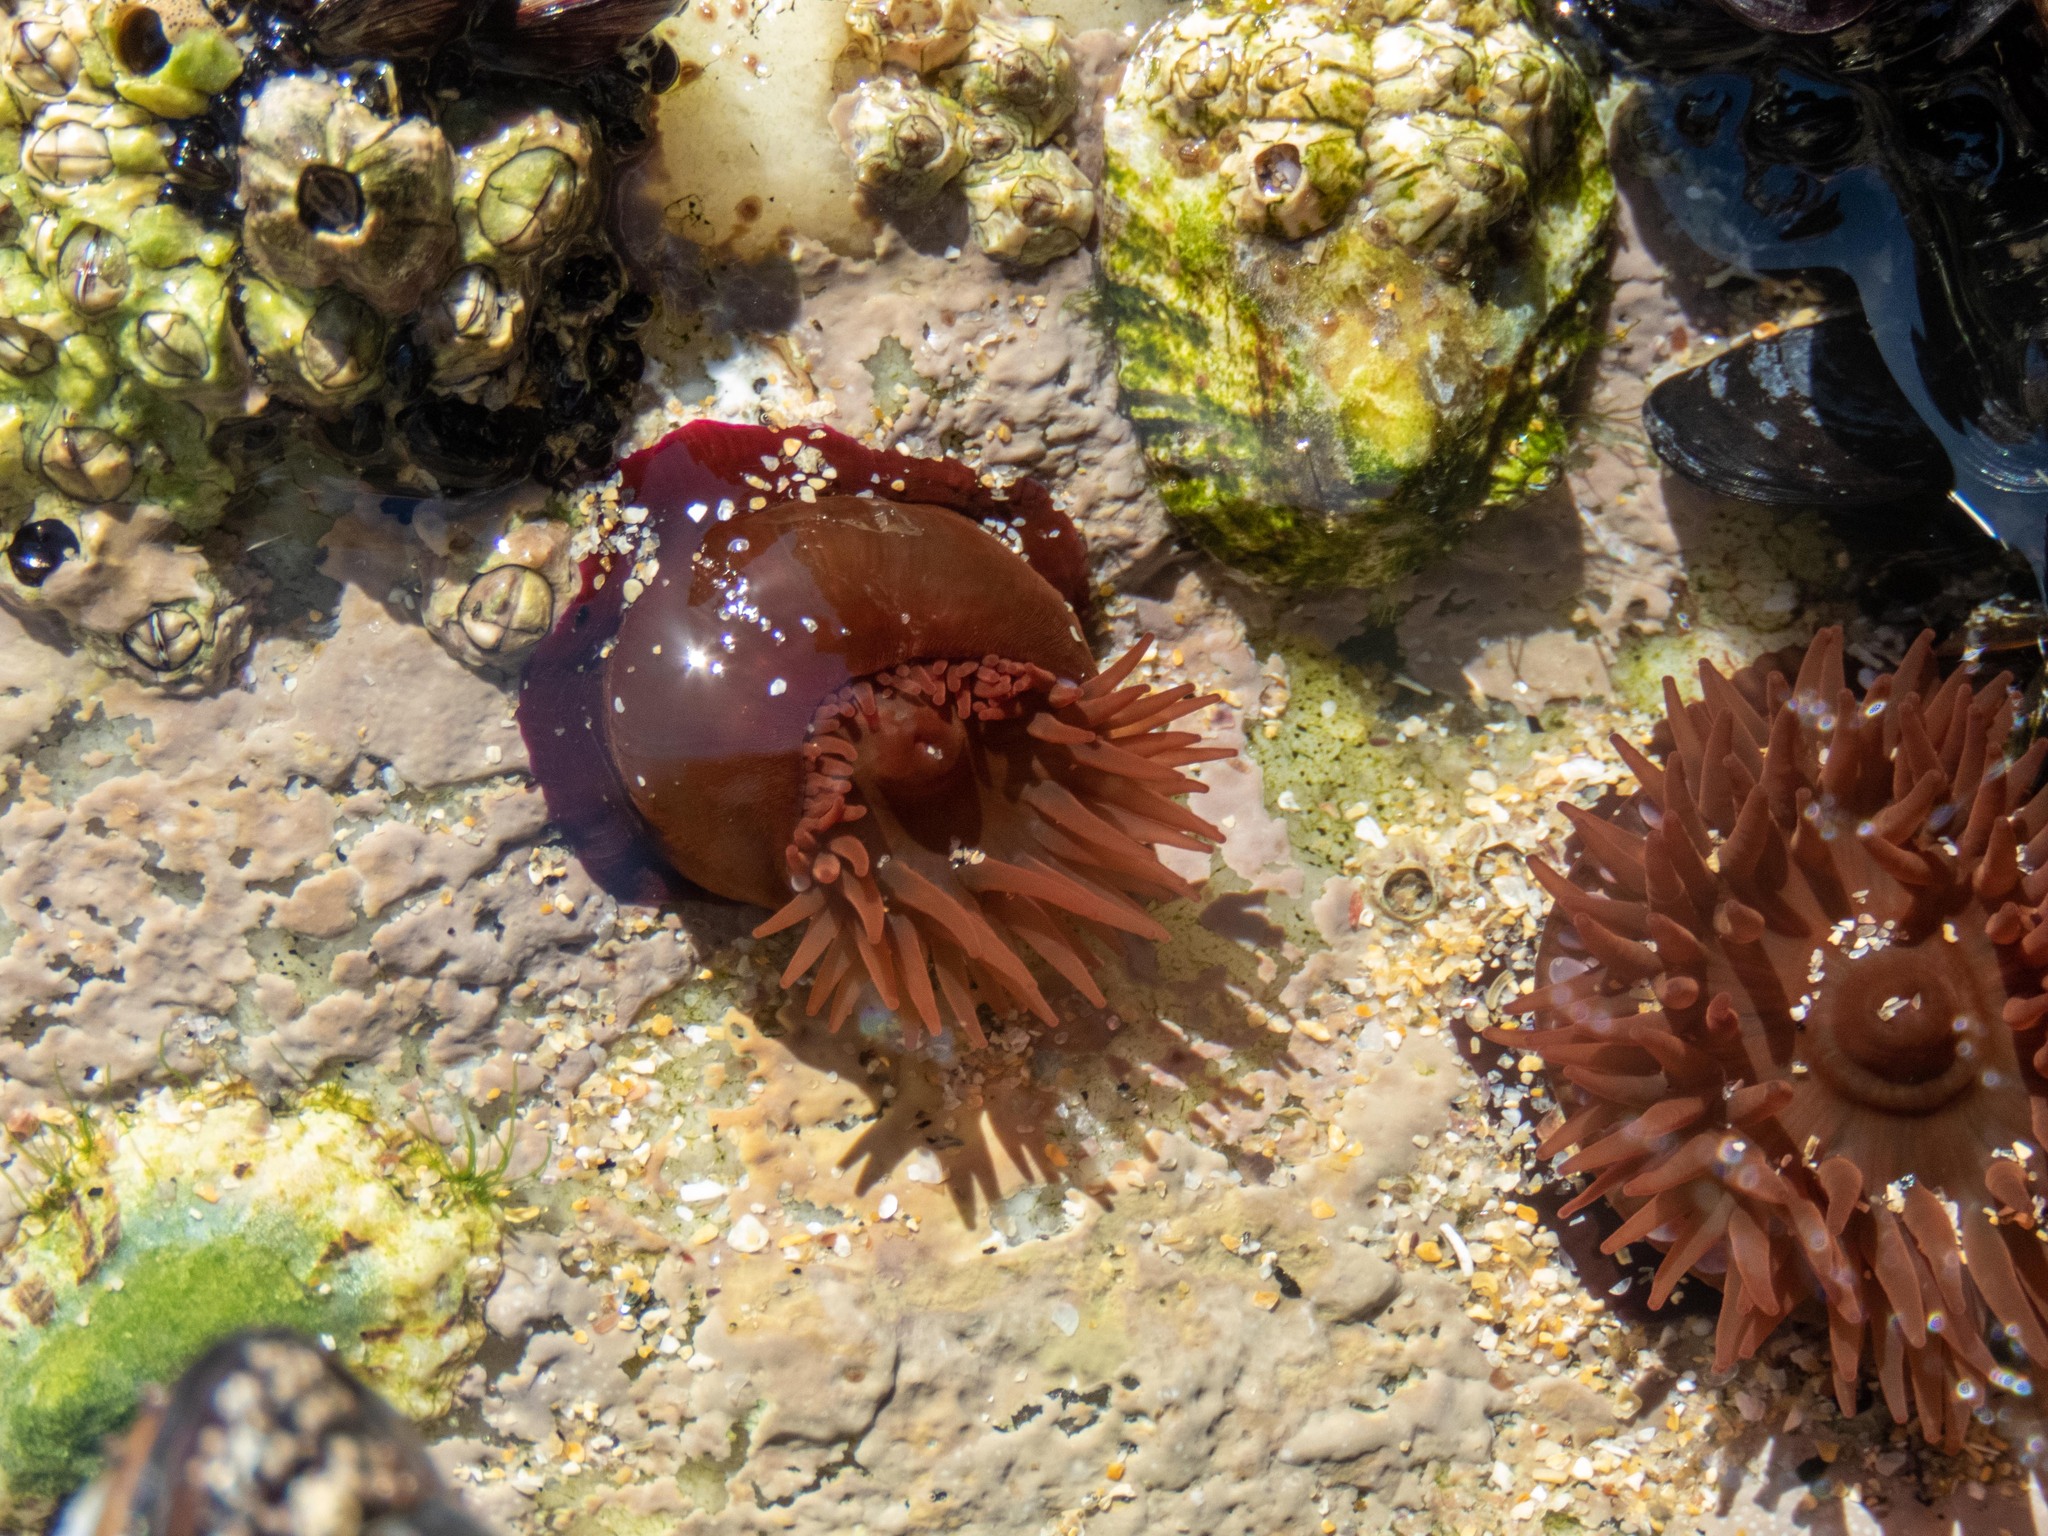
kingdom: Animalia
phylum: Cnidaria
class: Anthozoa
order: Actiniaria
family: Actiniidae
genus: Actinia
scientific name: Actinia equina
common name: Beadlet anemone
